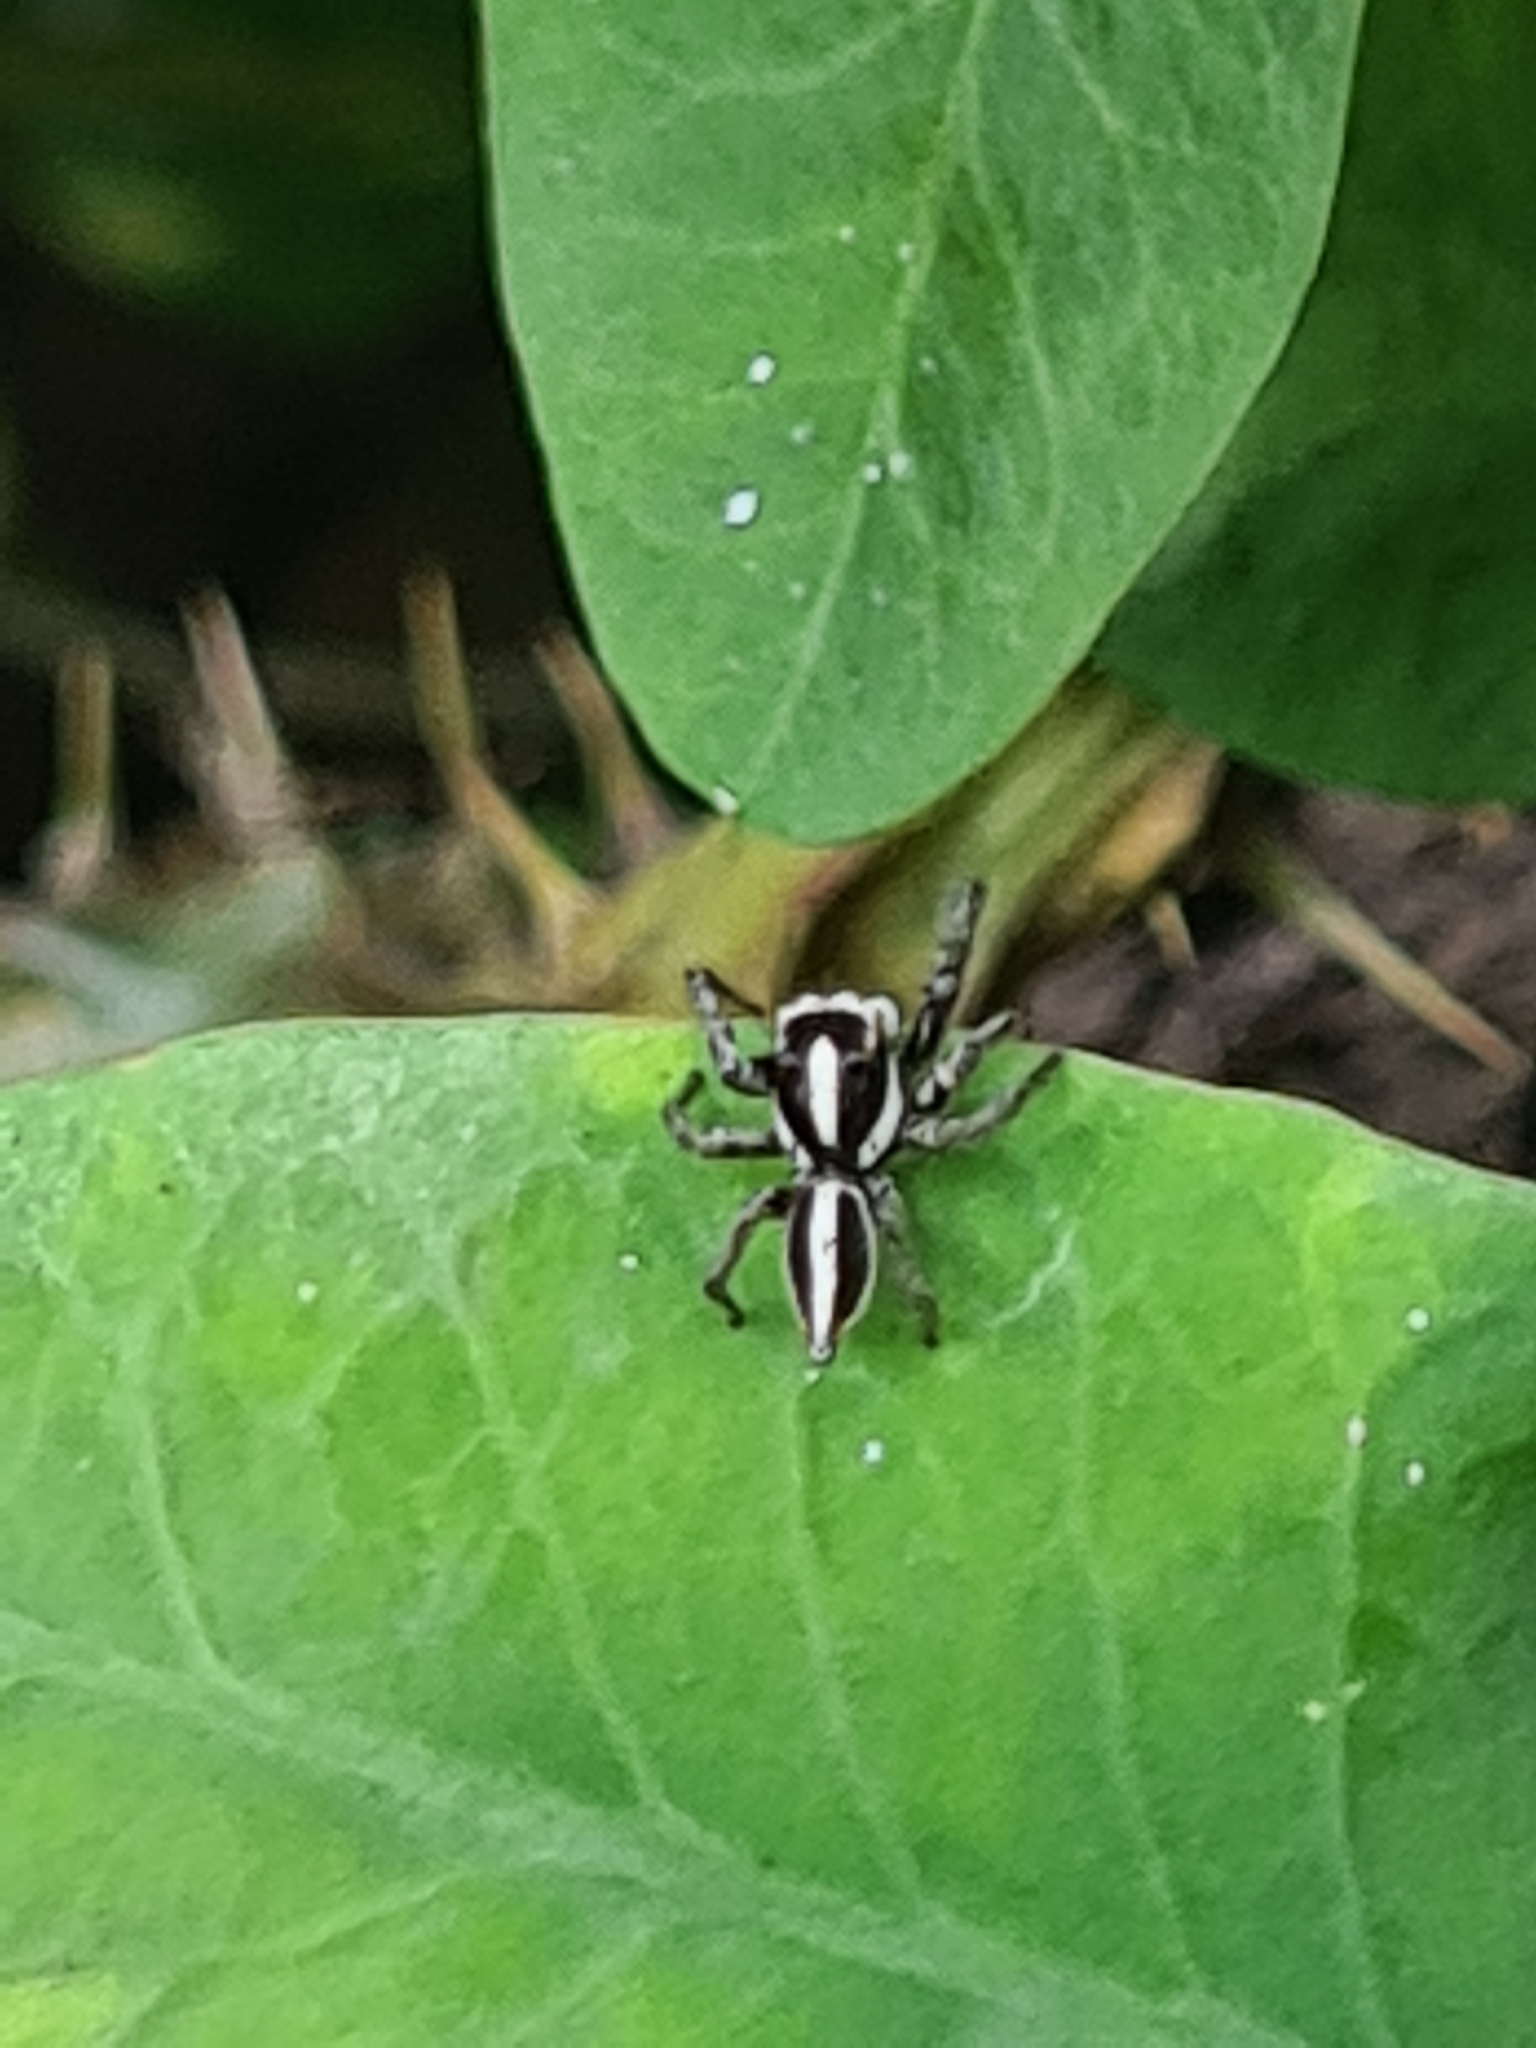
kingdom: Animalia
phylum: Arthropoda
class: Arachnida
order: Araneae
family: Salticidae
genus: Plexippus
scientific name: Plexippus paykulli
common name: Pantropical jumper
